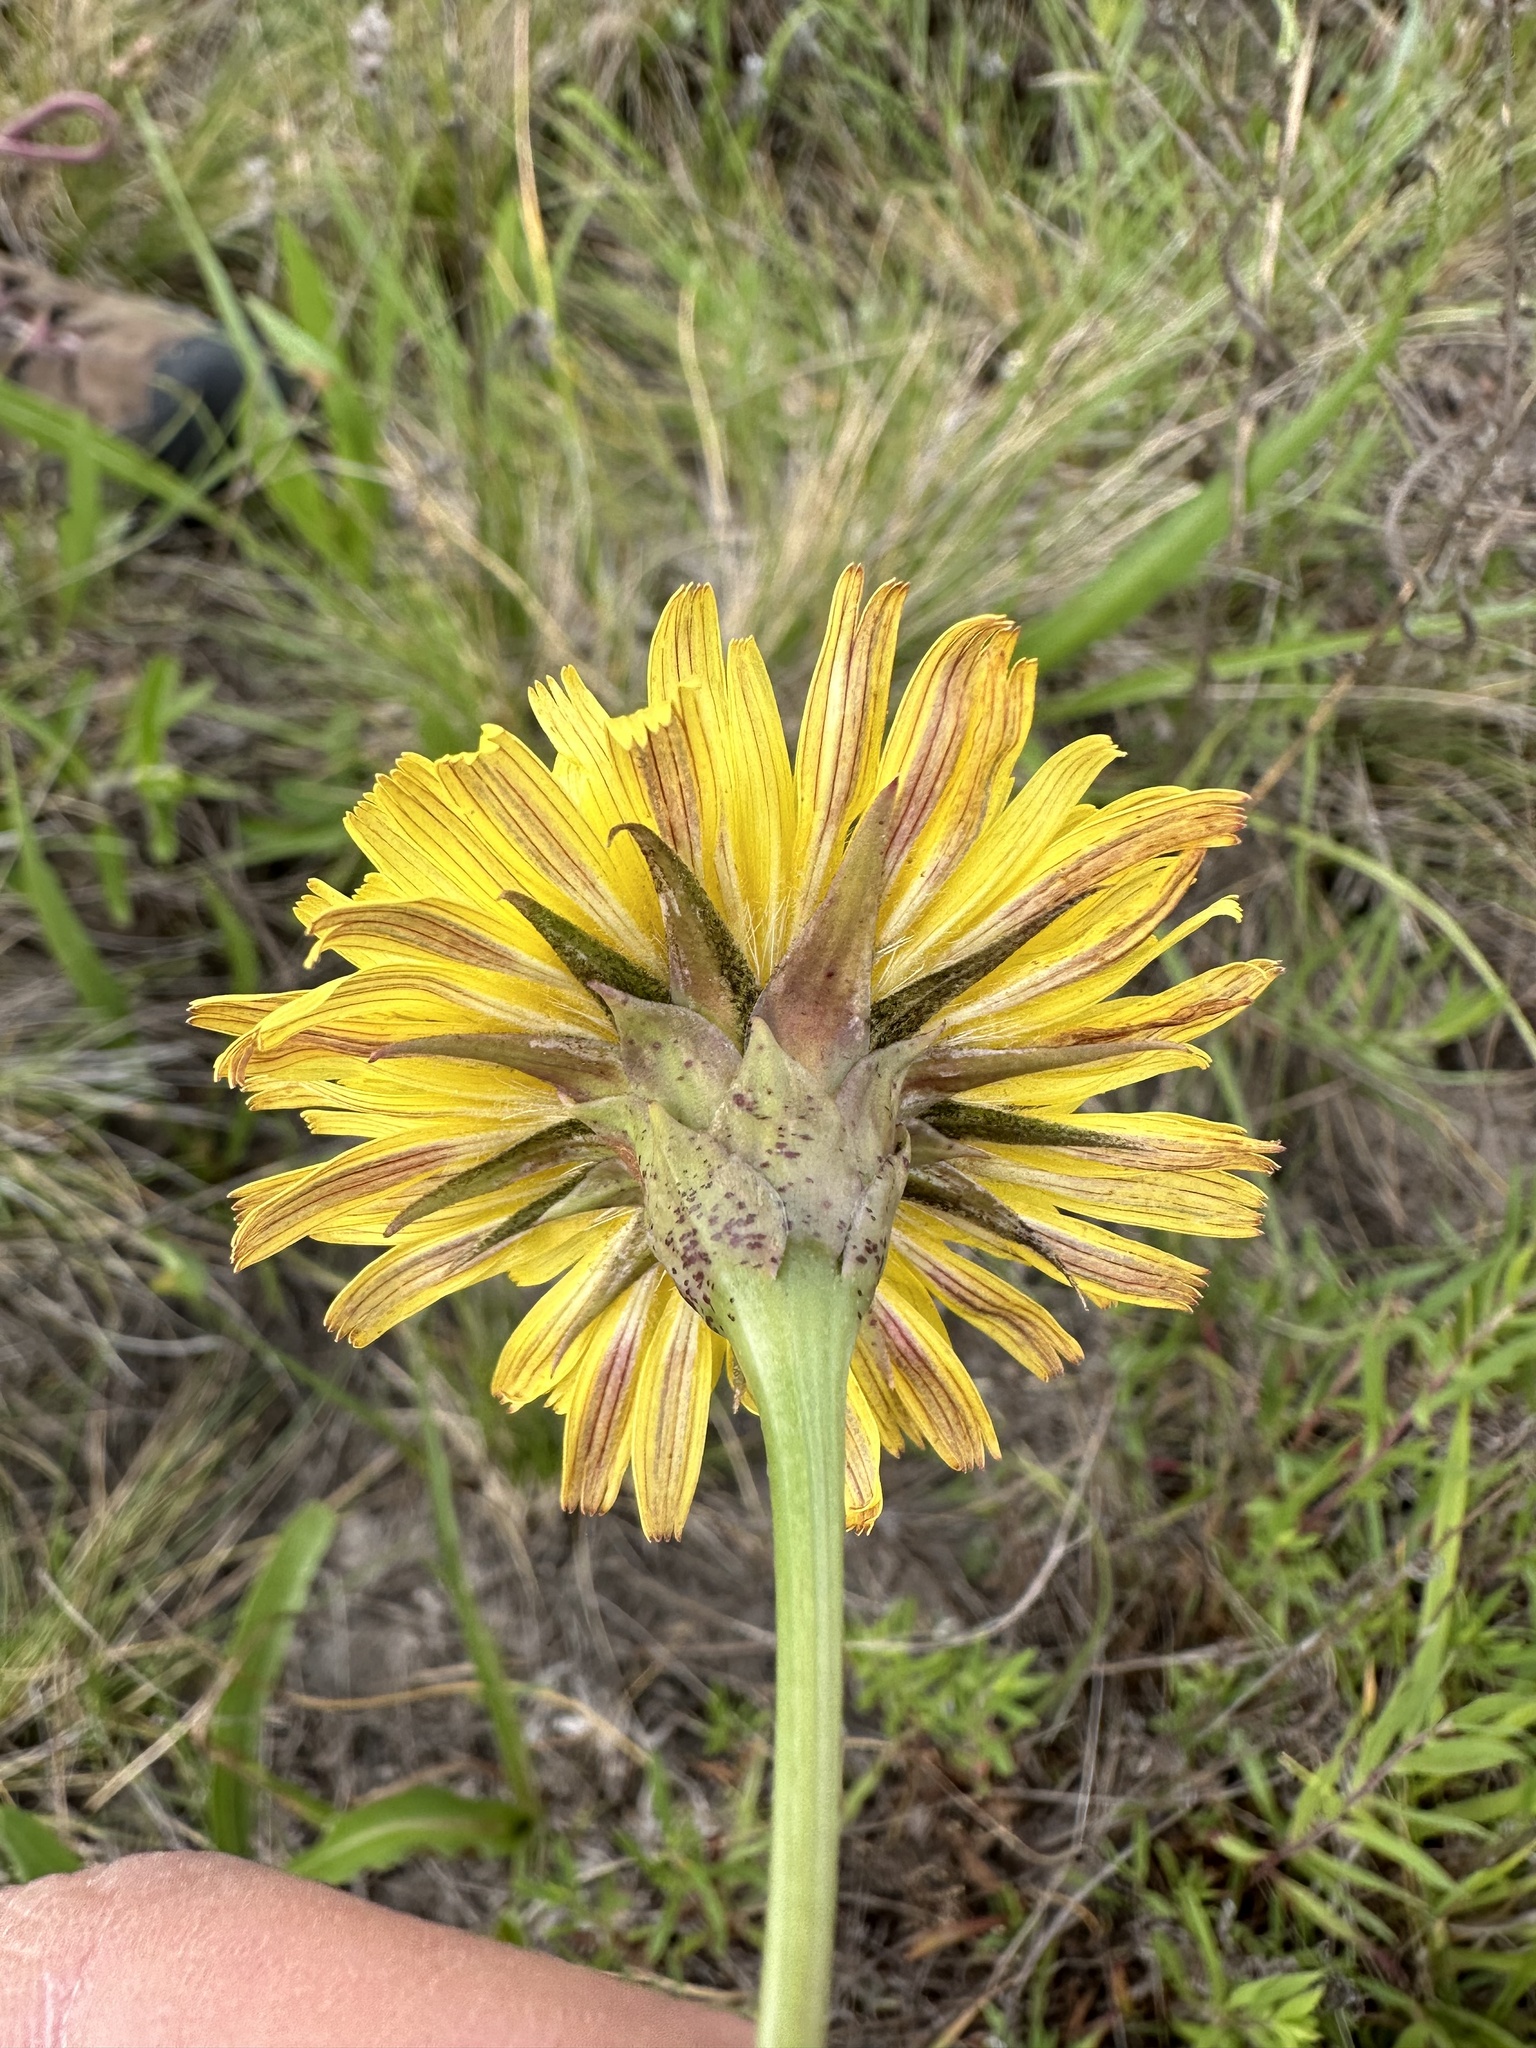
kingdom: Plantae
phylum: Tracheophyta
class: Magnoliopsida
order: Asterales
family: Asteraceae
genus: Microseris
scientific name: Microseris laciniata
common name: Cut-leaf microseris
